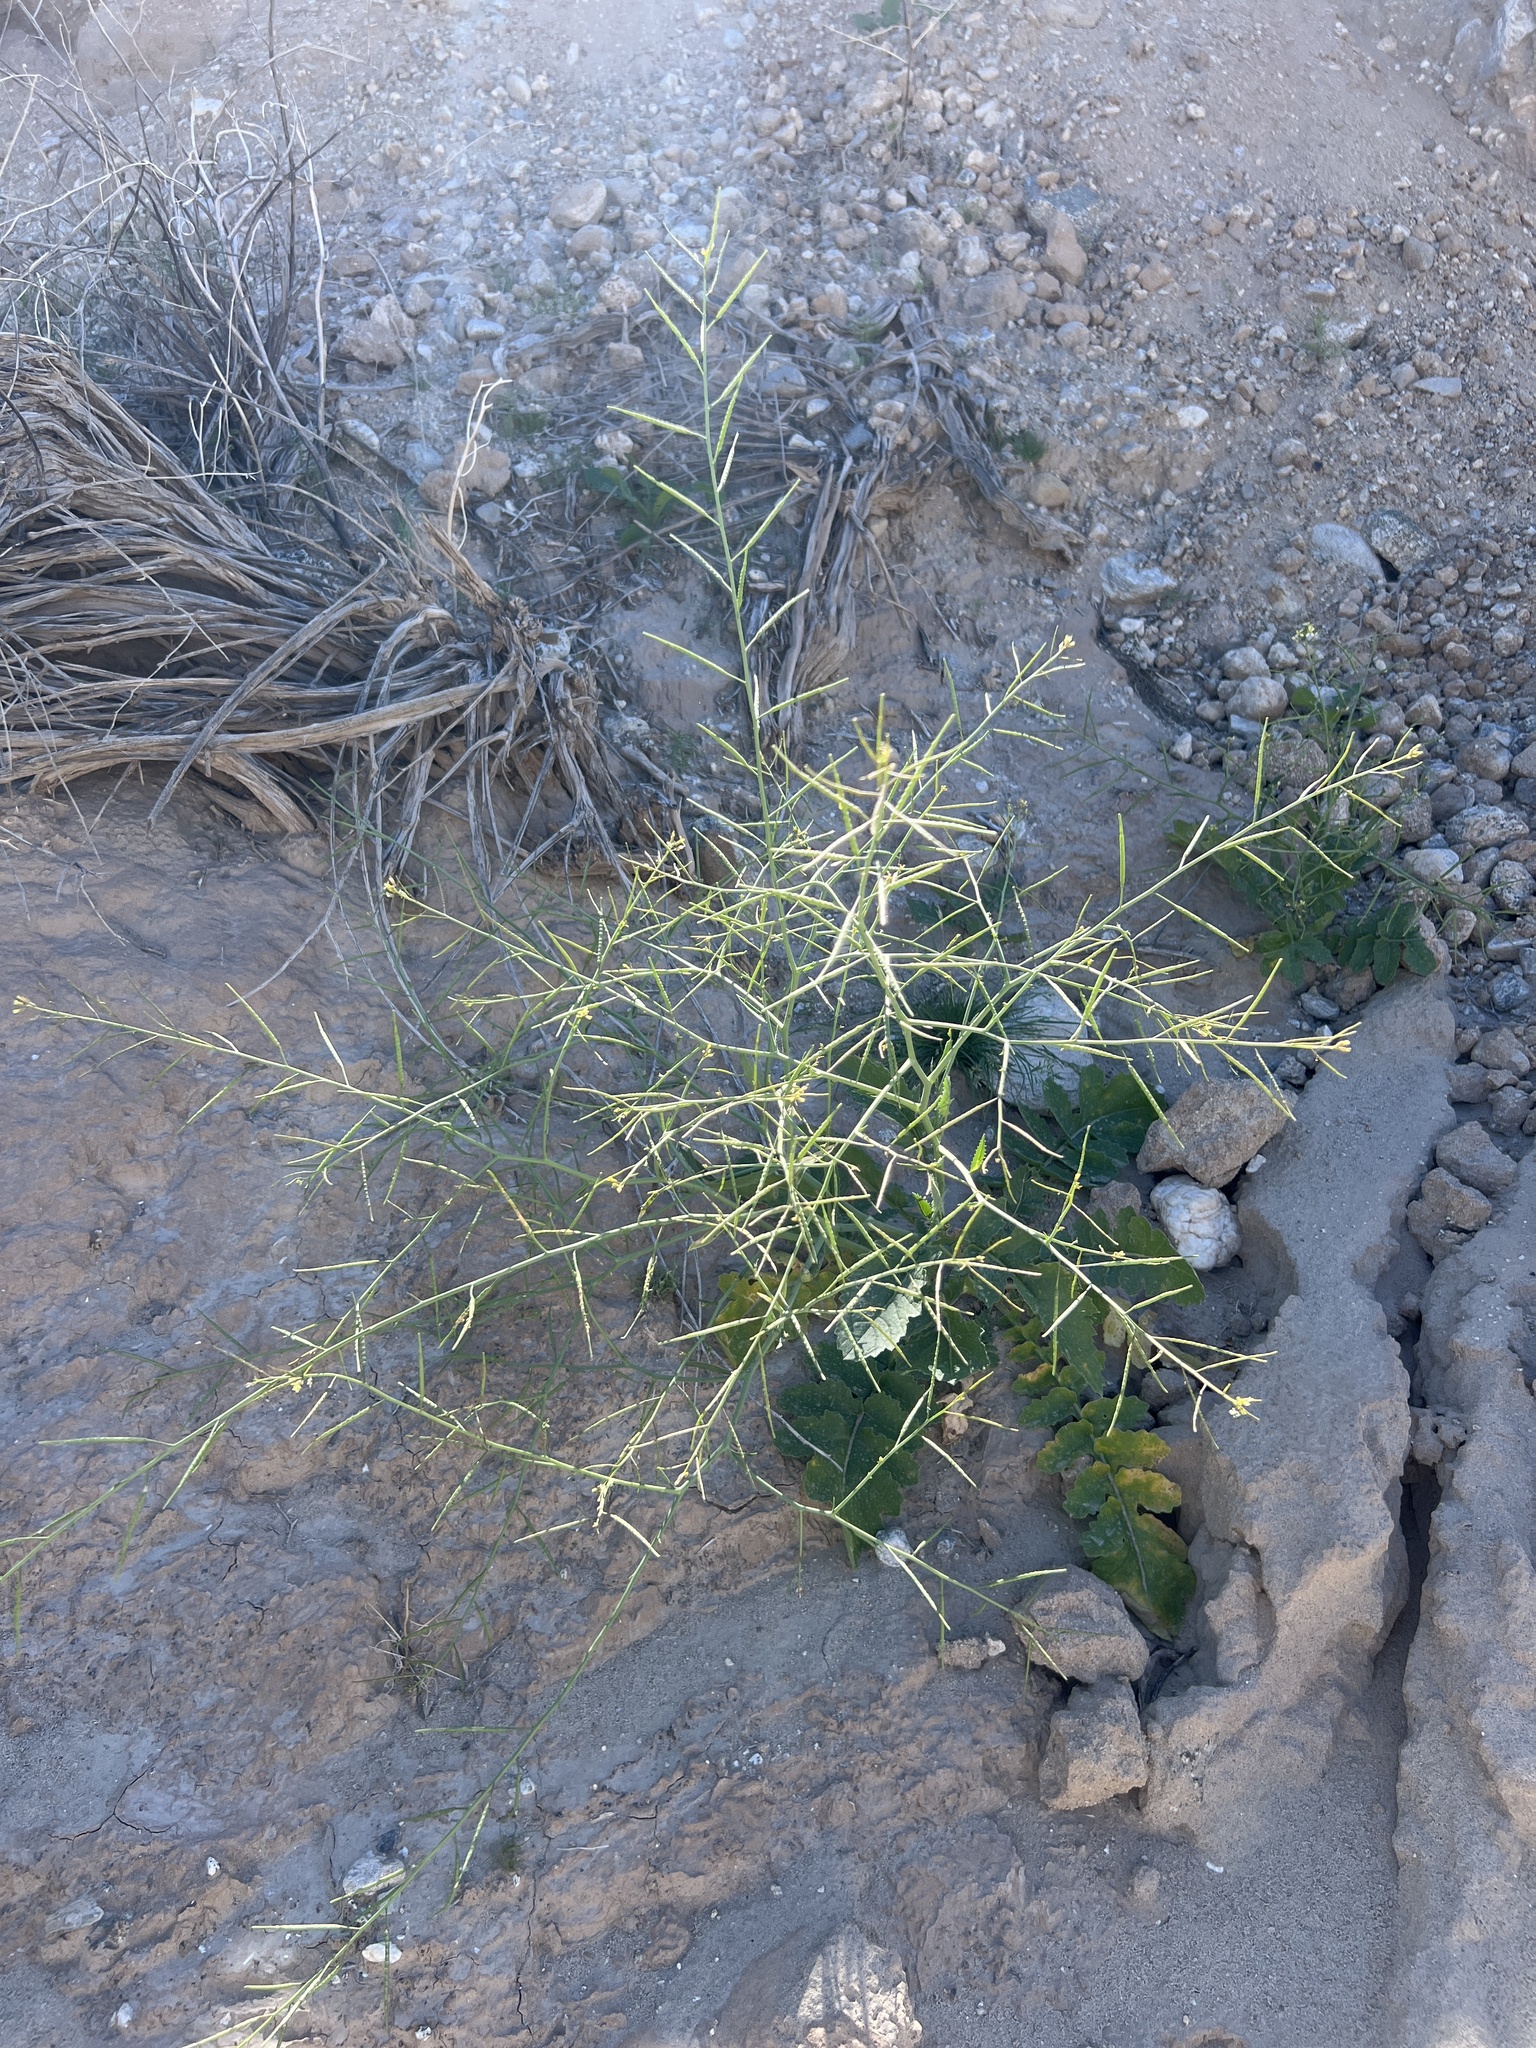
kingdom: Plantae
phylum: Tracheophyta
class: Magnoliopsida
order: Brassicales
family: Brassicaceae
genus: Brassica
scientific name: Brassica tournefortii
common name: Pale cabbage
